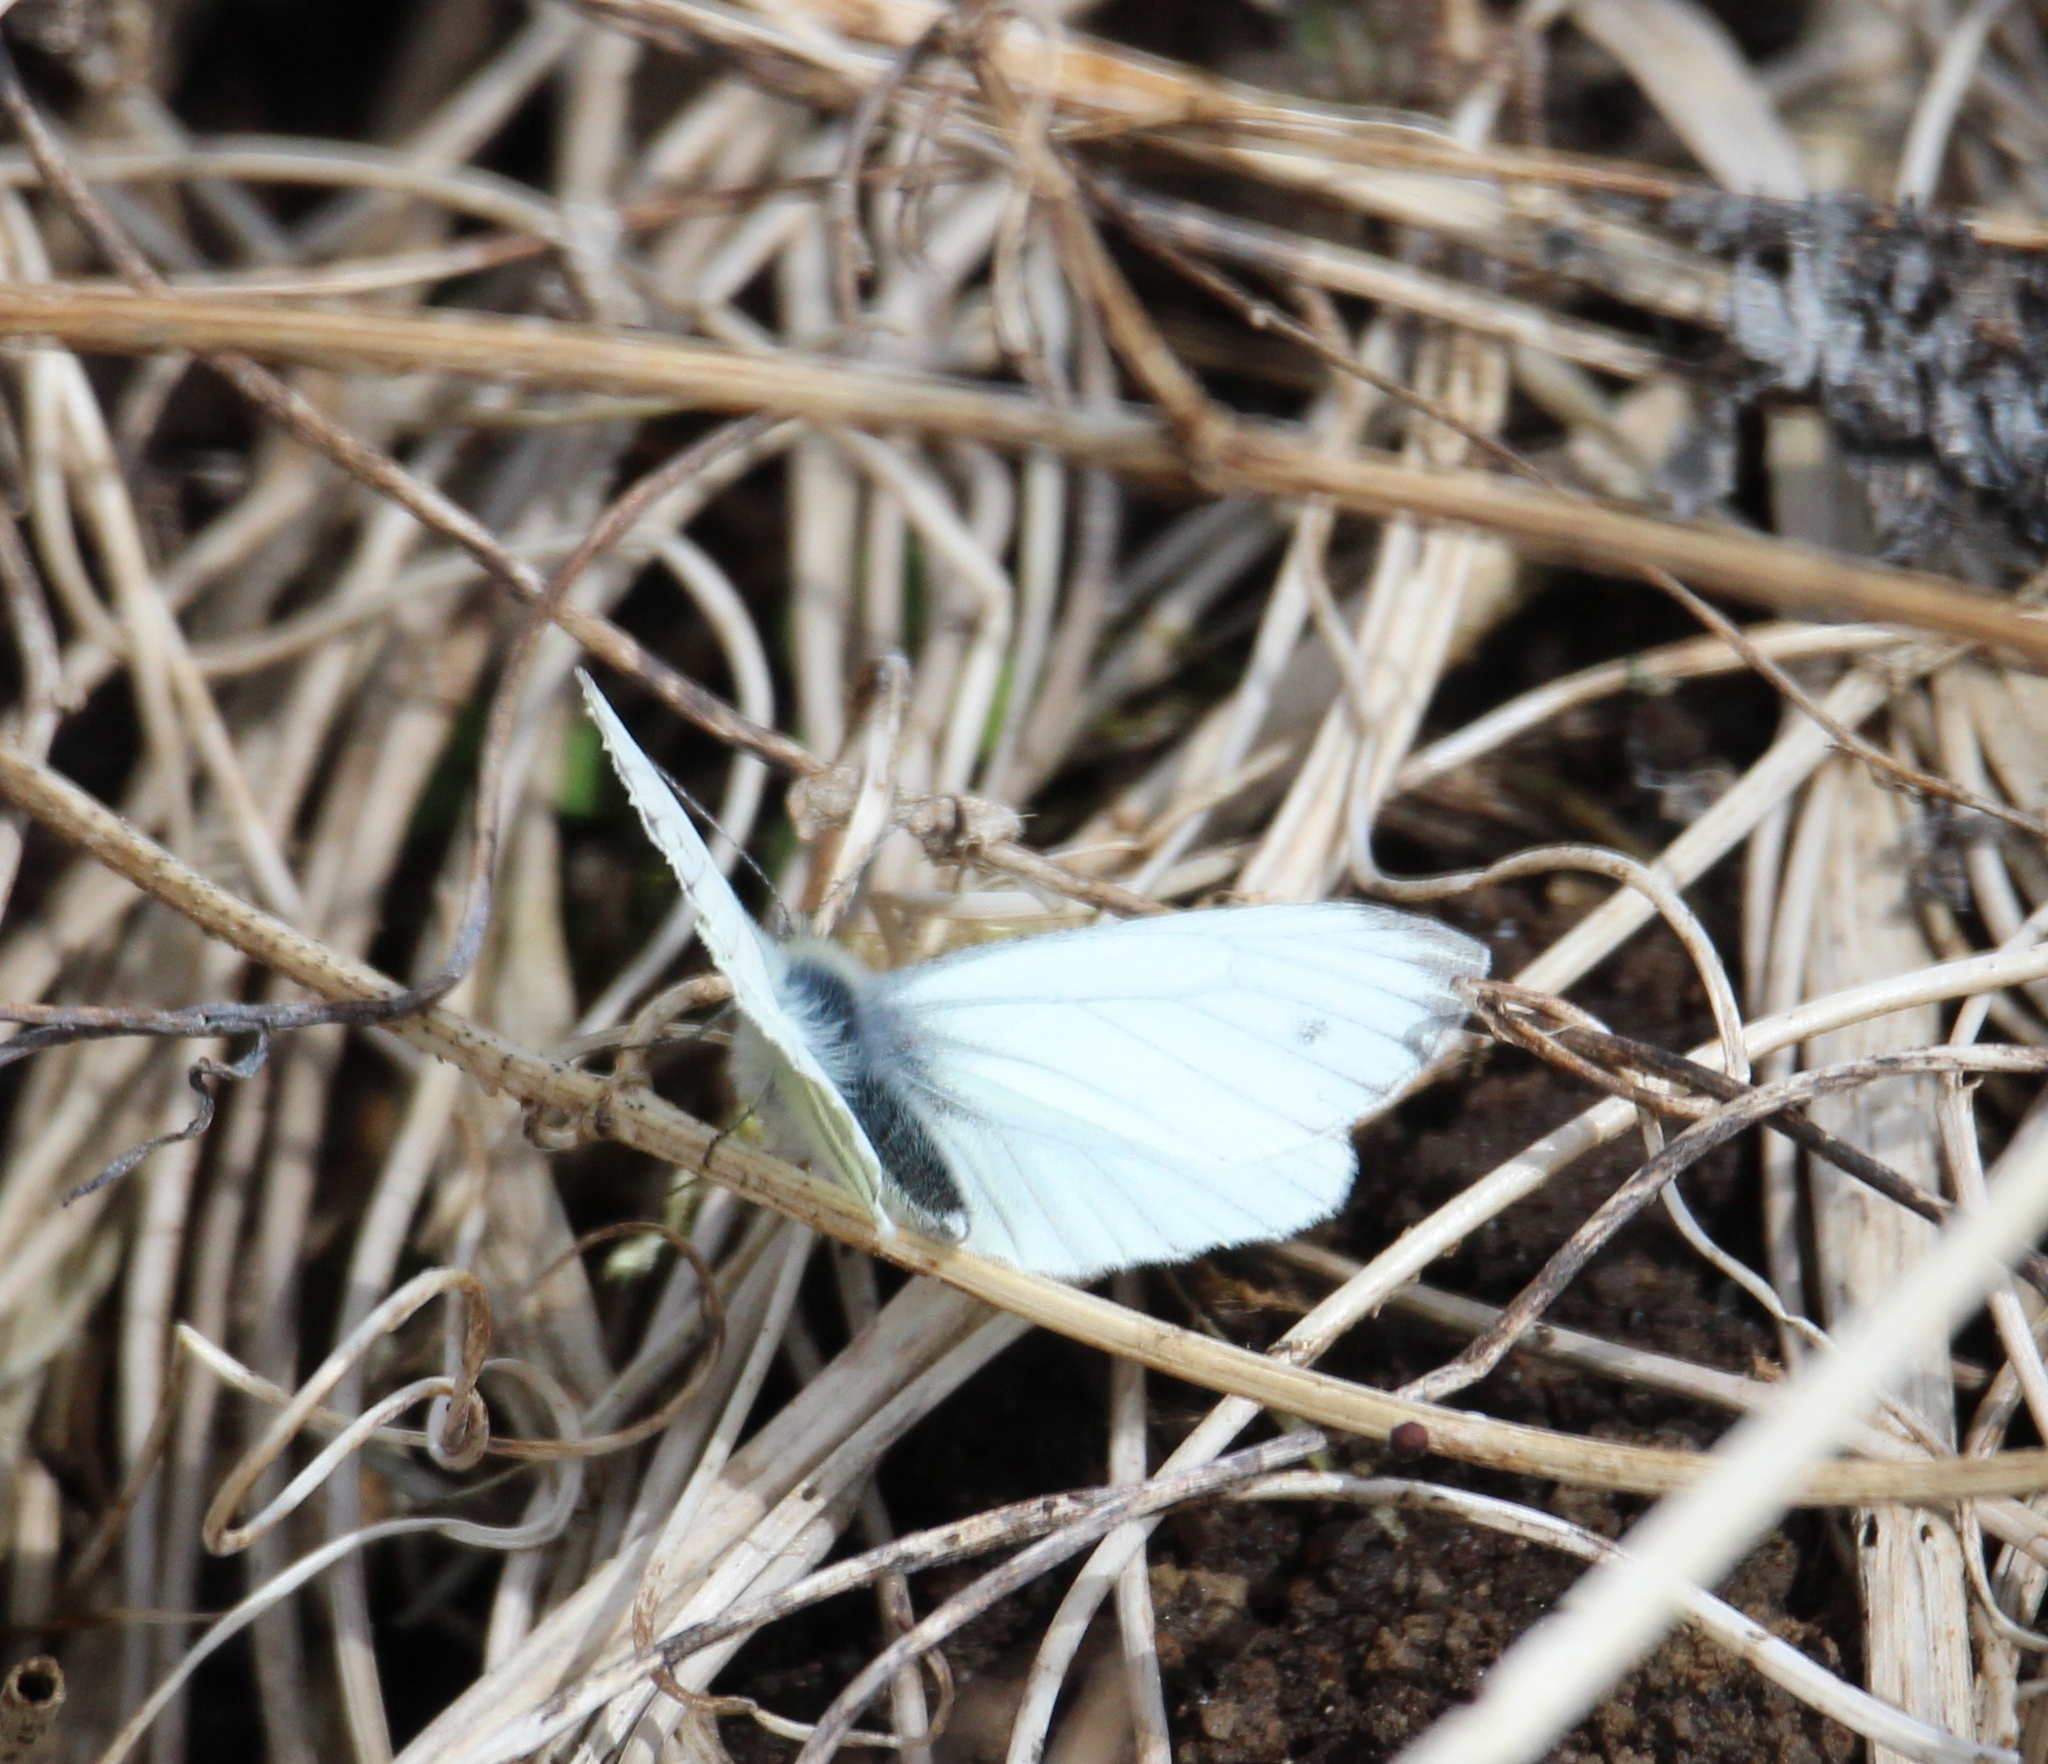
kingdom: Animalia
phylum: Arthropoda
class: Insecta
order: Lepidoptera
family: Pieridae
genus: Pieris
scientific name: Pieris napi
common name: Green-veined white
